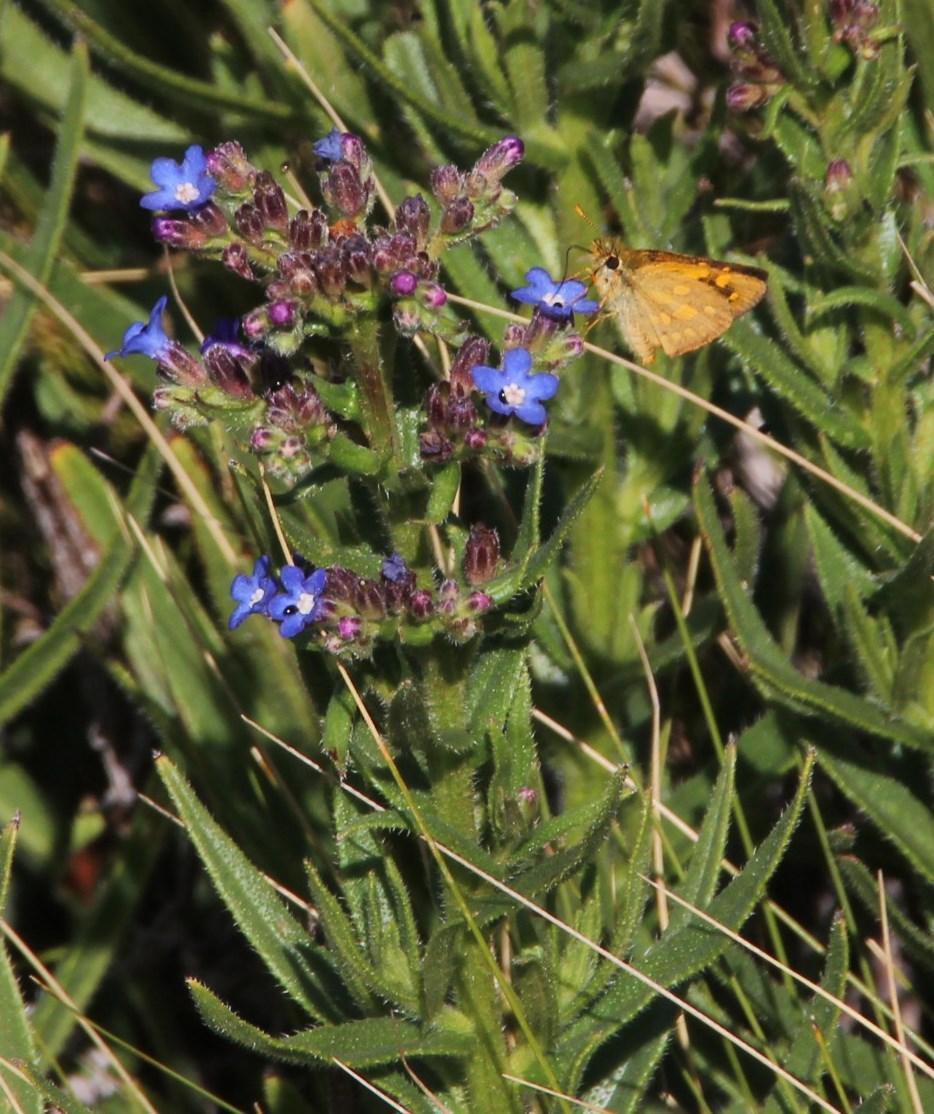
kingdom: Animalia
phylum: Arthropoda
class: Insecta
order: Lepidoptera
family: Hesperiidae
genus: Metisella
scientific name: Metisella malgacha
